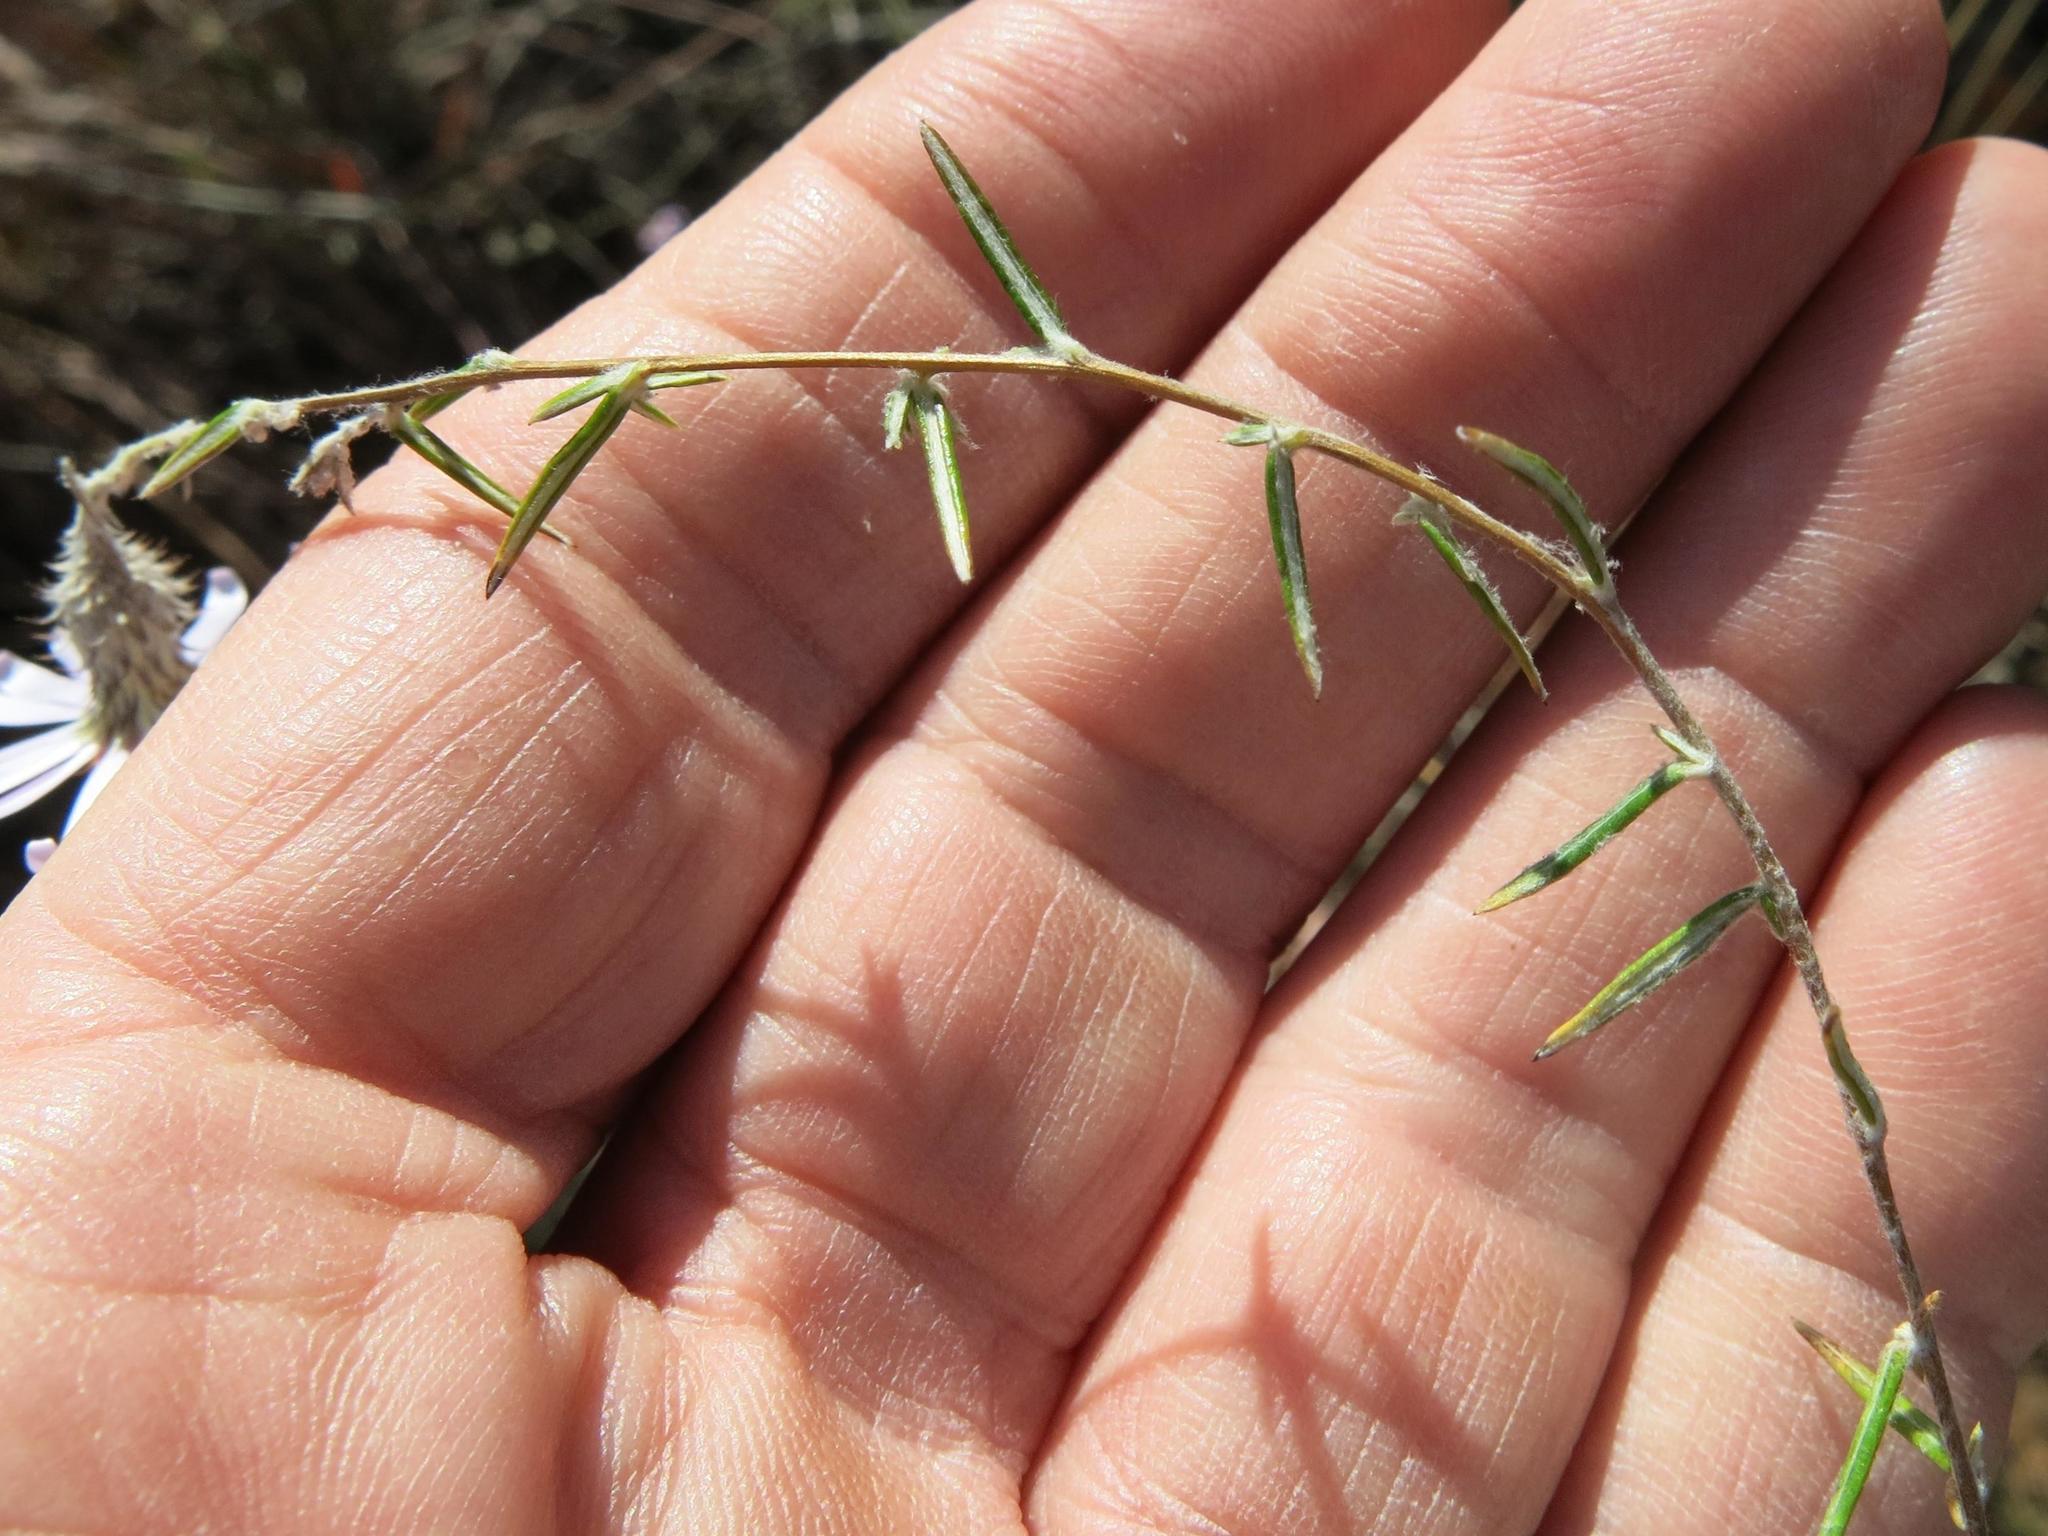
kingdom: Plantae
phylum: Tracheophyta
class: Magnoliopsida
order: Asterales
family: Asteraceae
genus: Athrixia
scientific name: Athrixia elata
